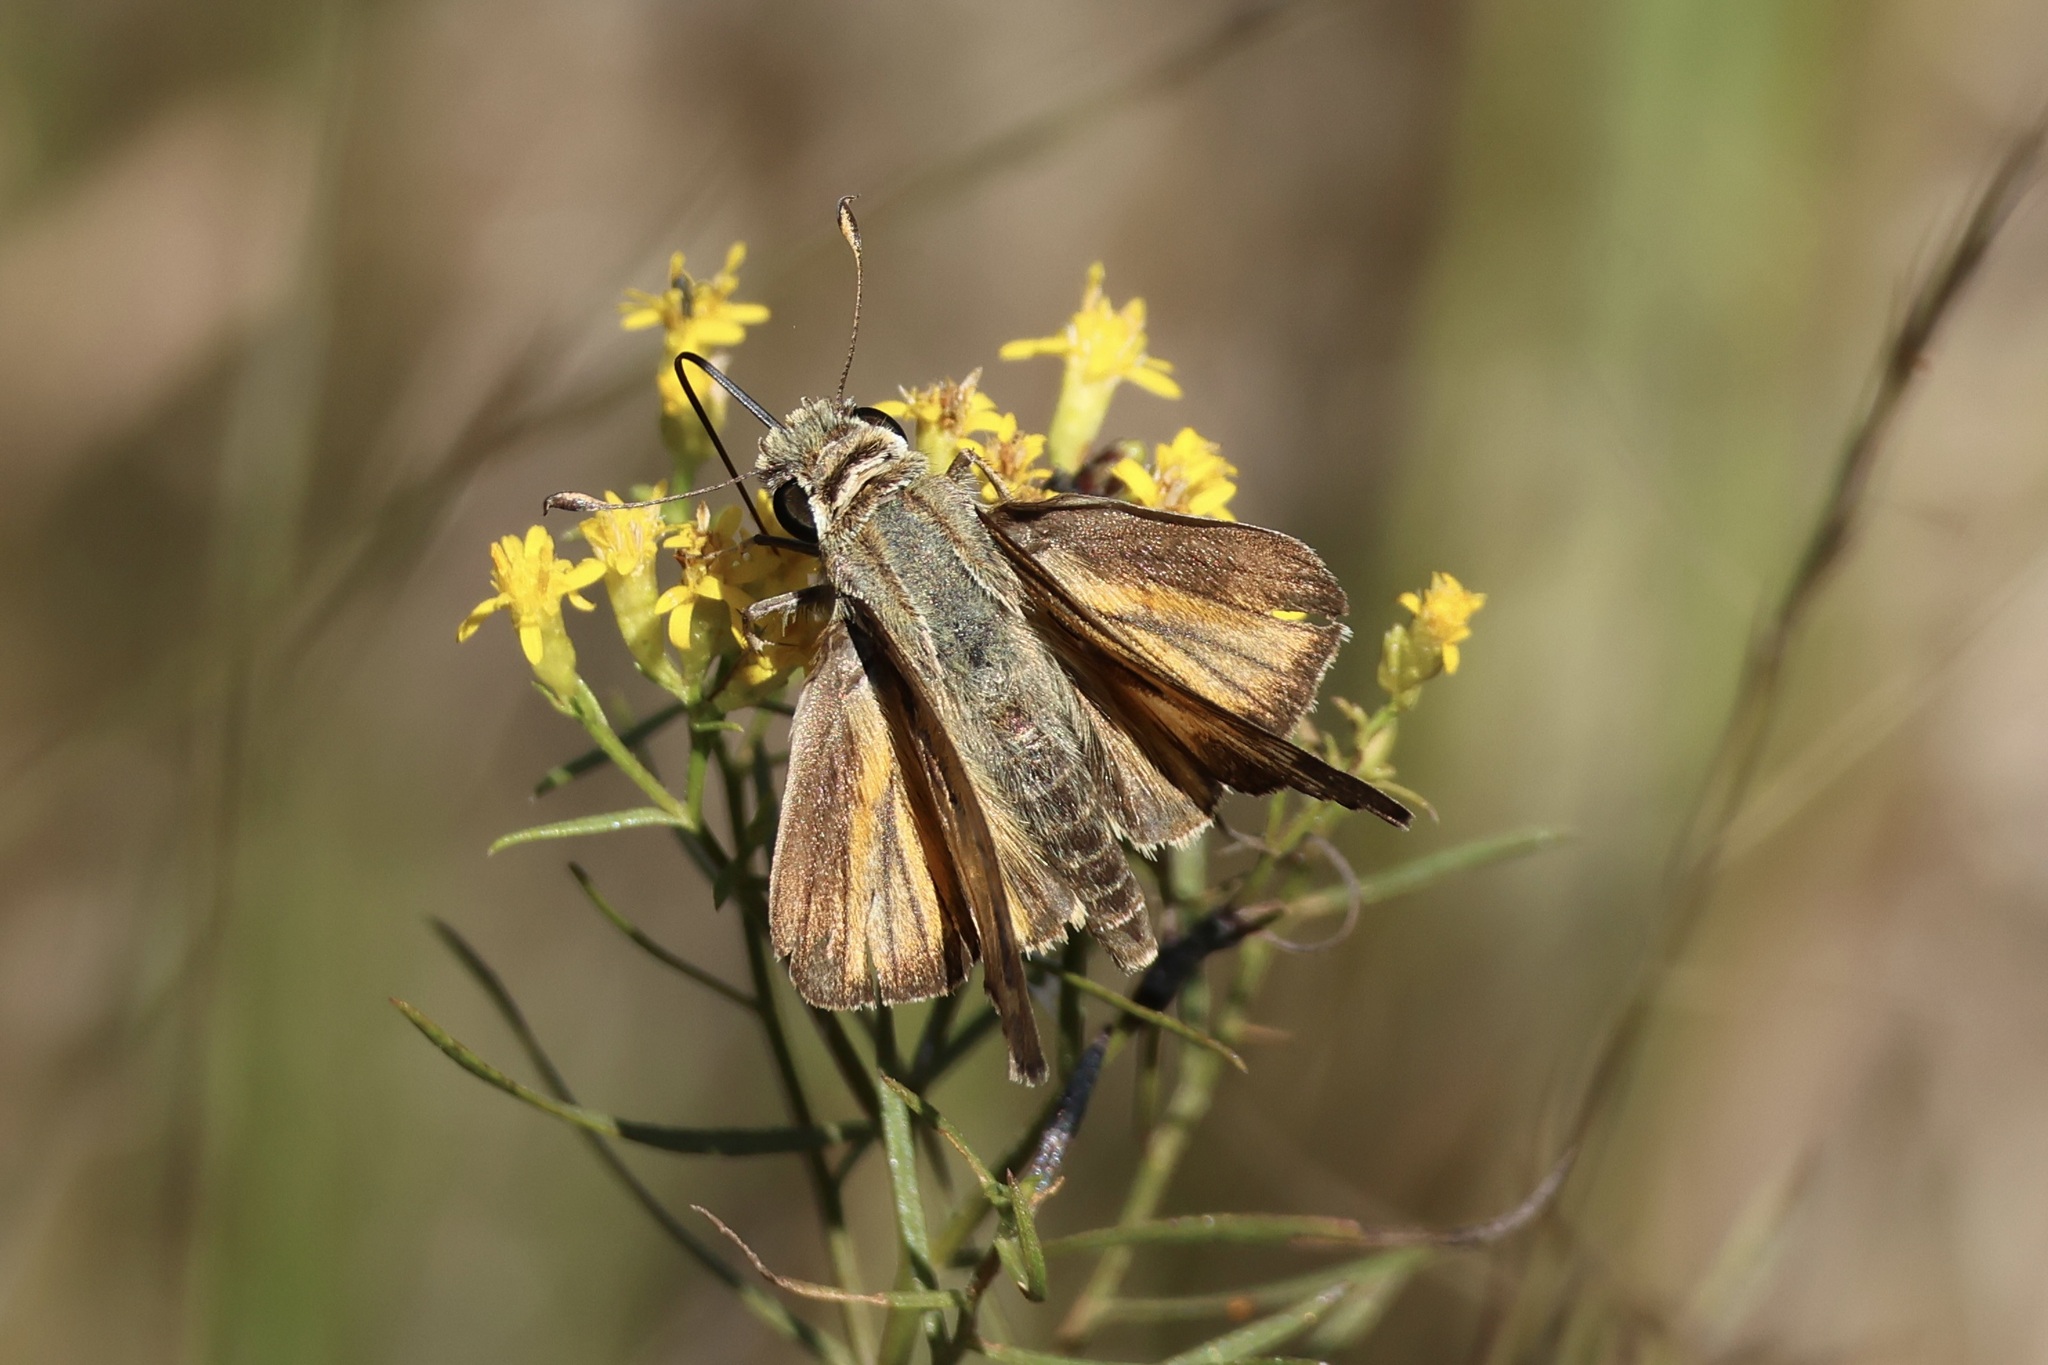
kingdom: Animalia
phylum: Arthropoda
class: Insecta
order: Lepidoptera
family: Hesperiidae
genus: Atalopedes
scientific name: Atalopedes
